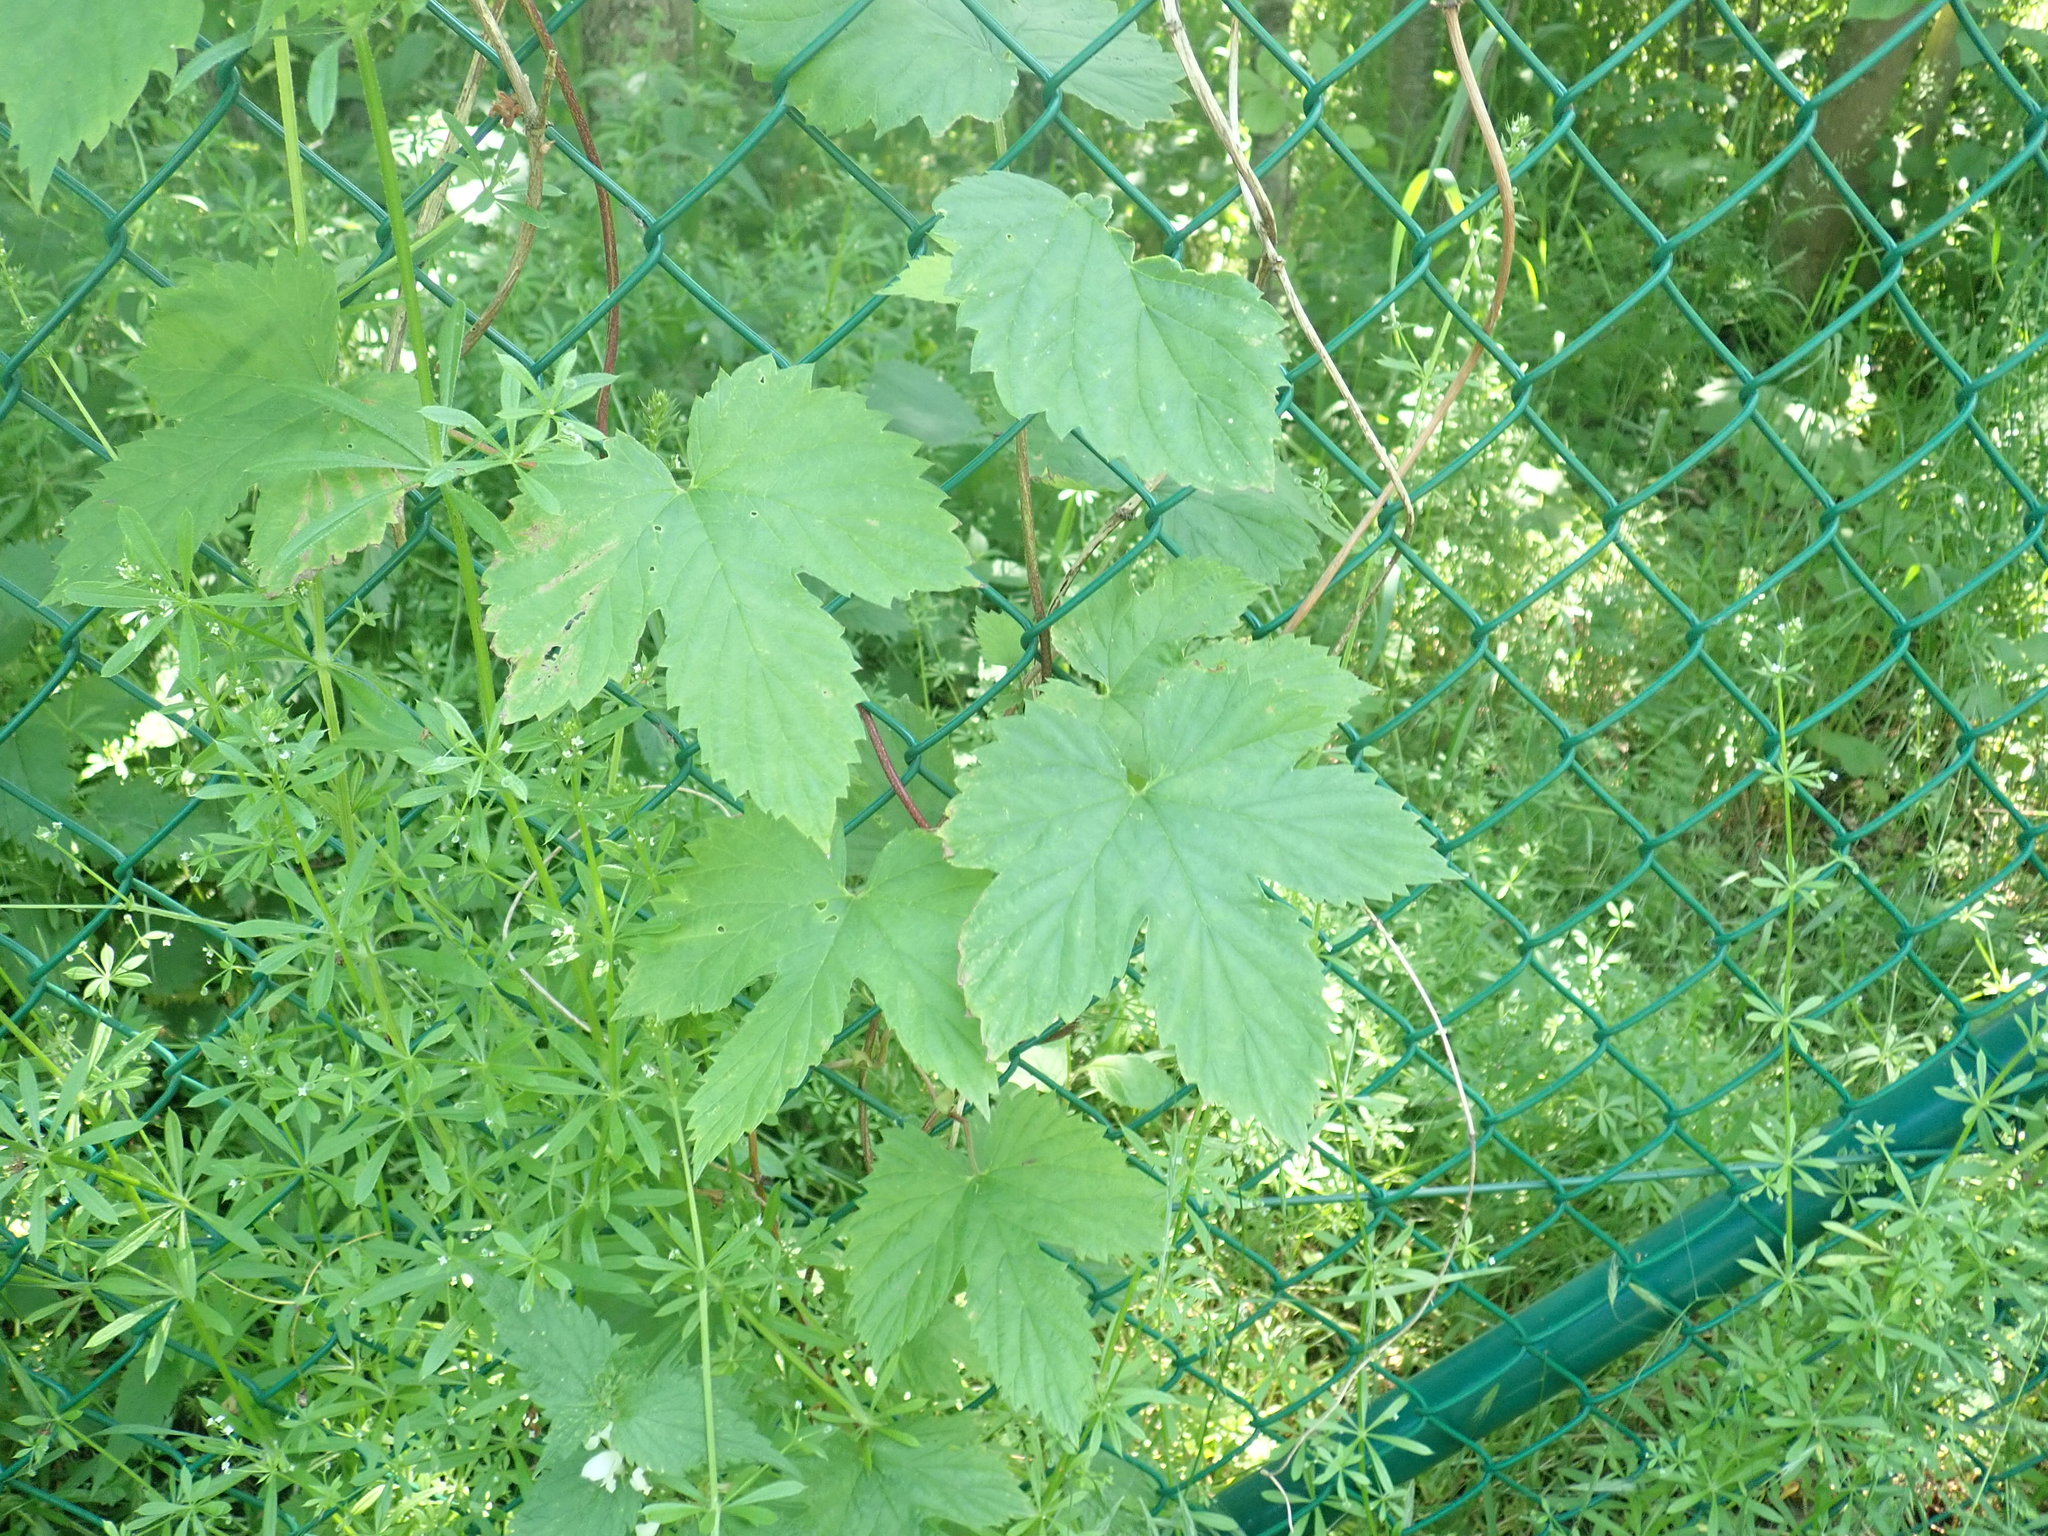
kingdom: Plantae
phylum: Tracheophyta
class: Magnoliopsida
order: Rosales
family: Cannabaceae
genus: Humulus
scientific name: Humulus lupulus
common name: Hop
